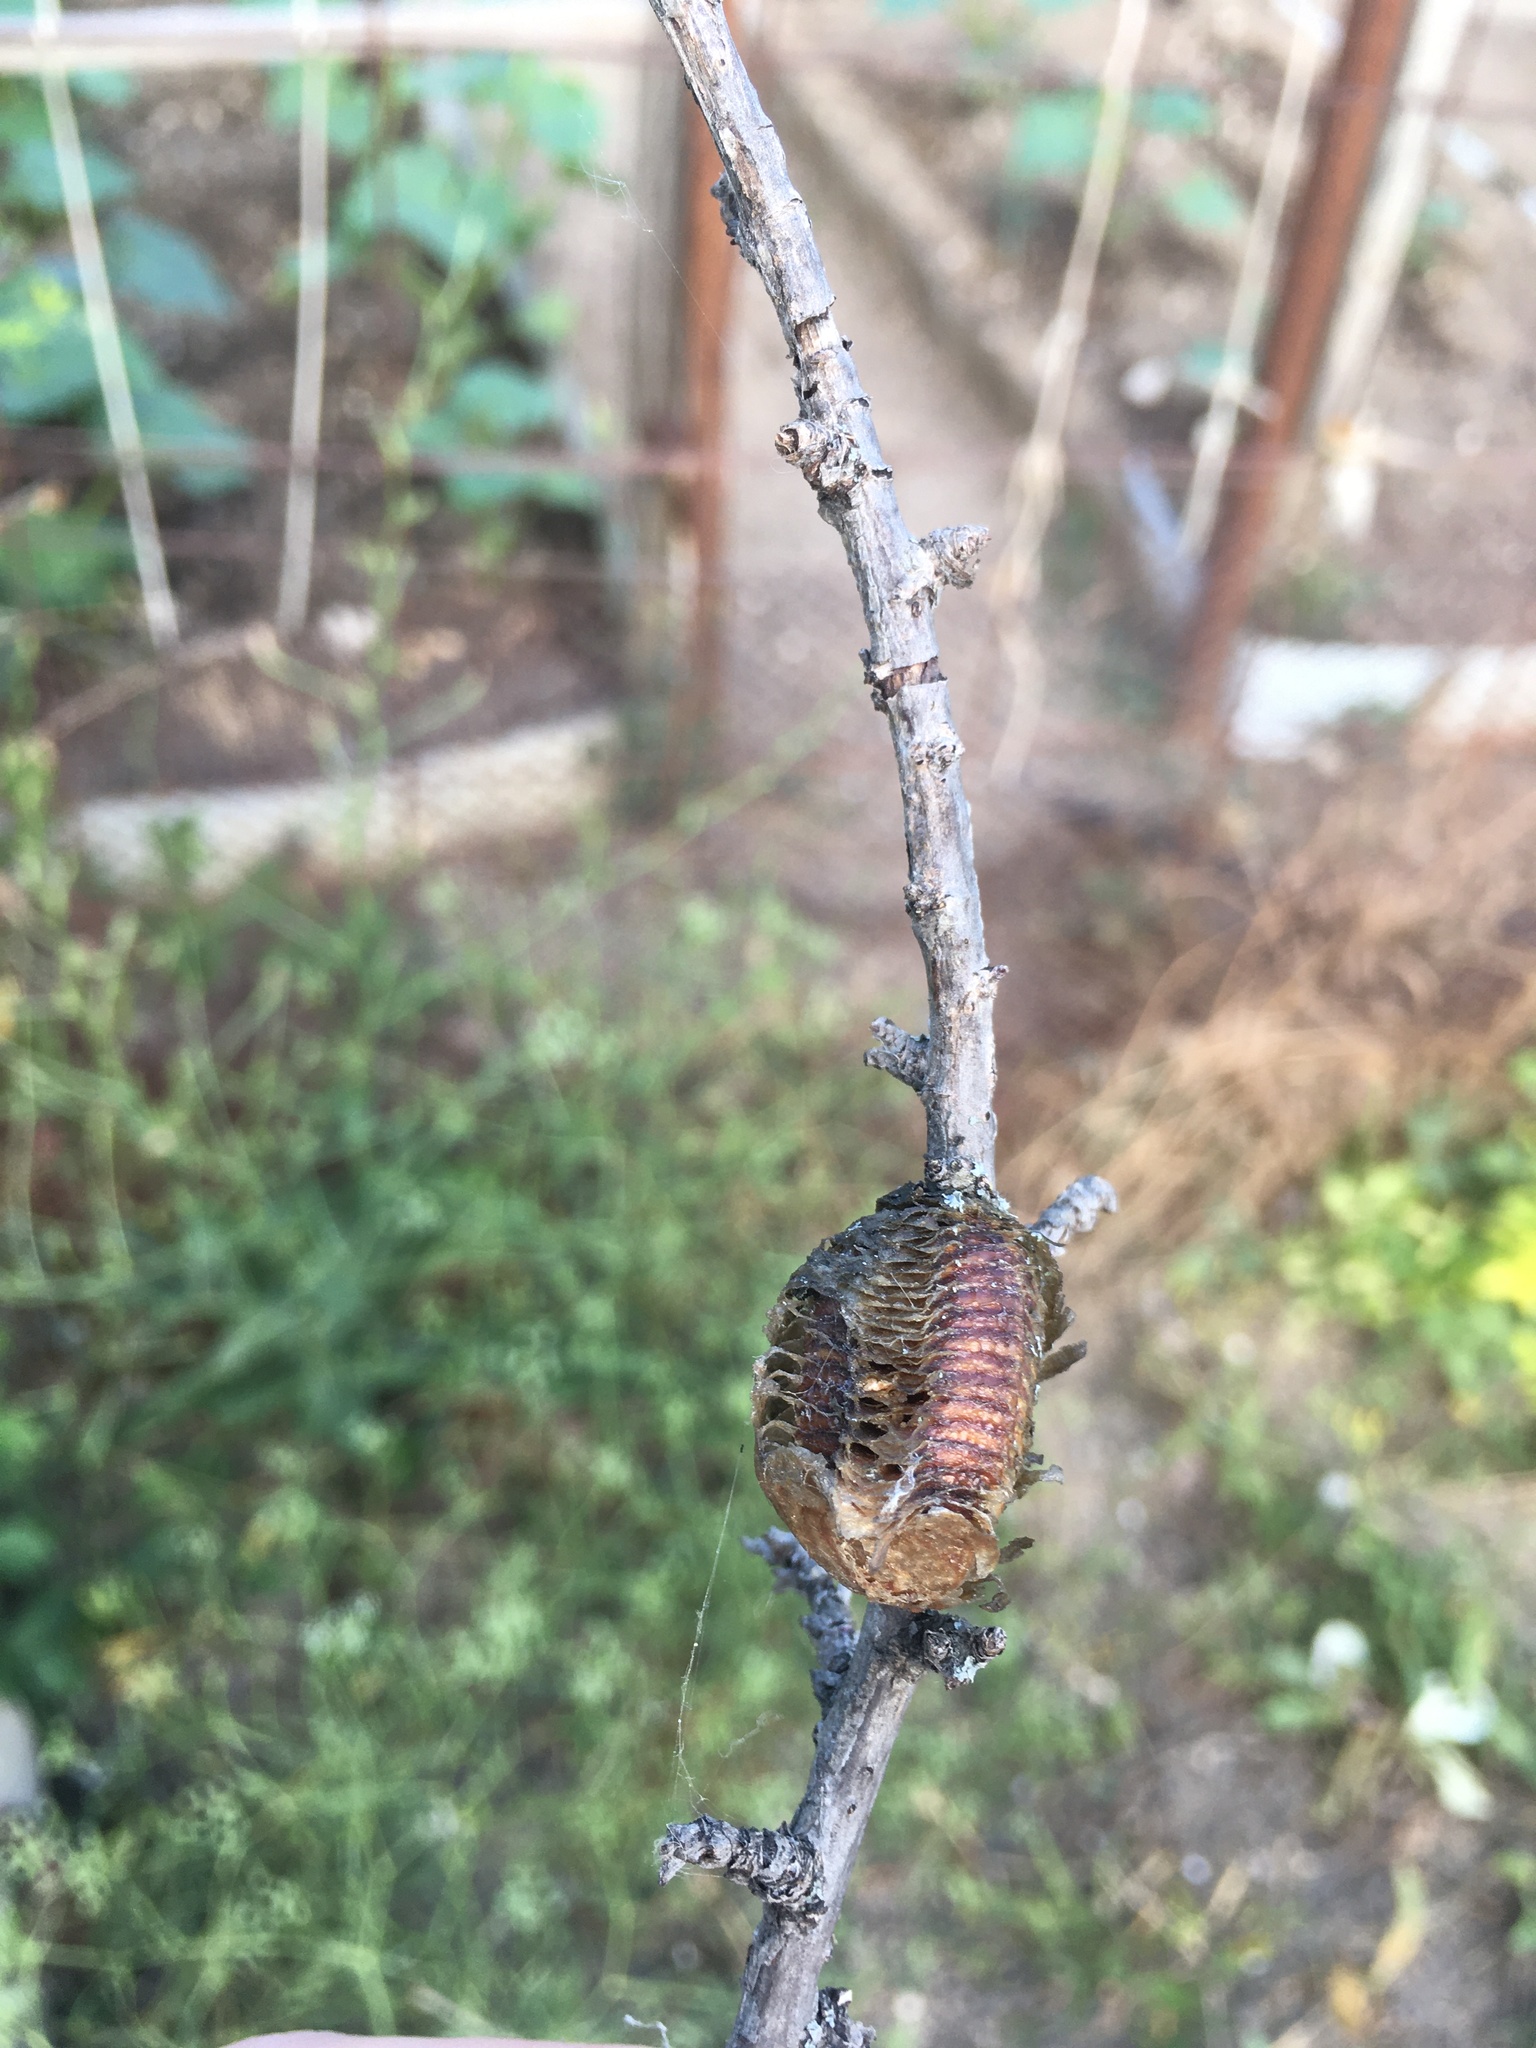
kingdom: Animalia
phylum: Arthropoda
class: Insecta
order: Mantodea
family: Mantidae
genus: Hierodula
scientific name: Hierodula transcaucasica
